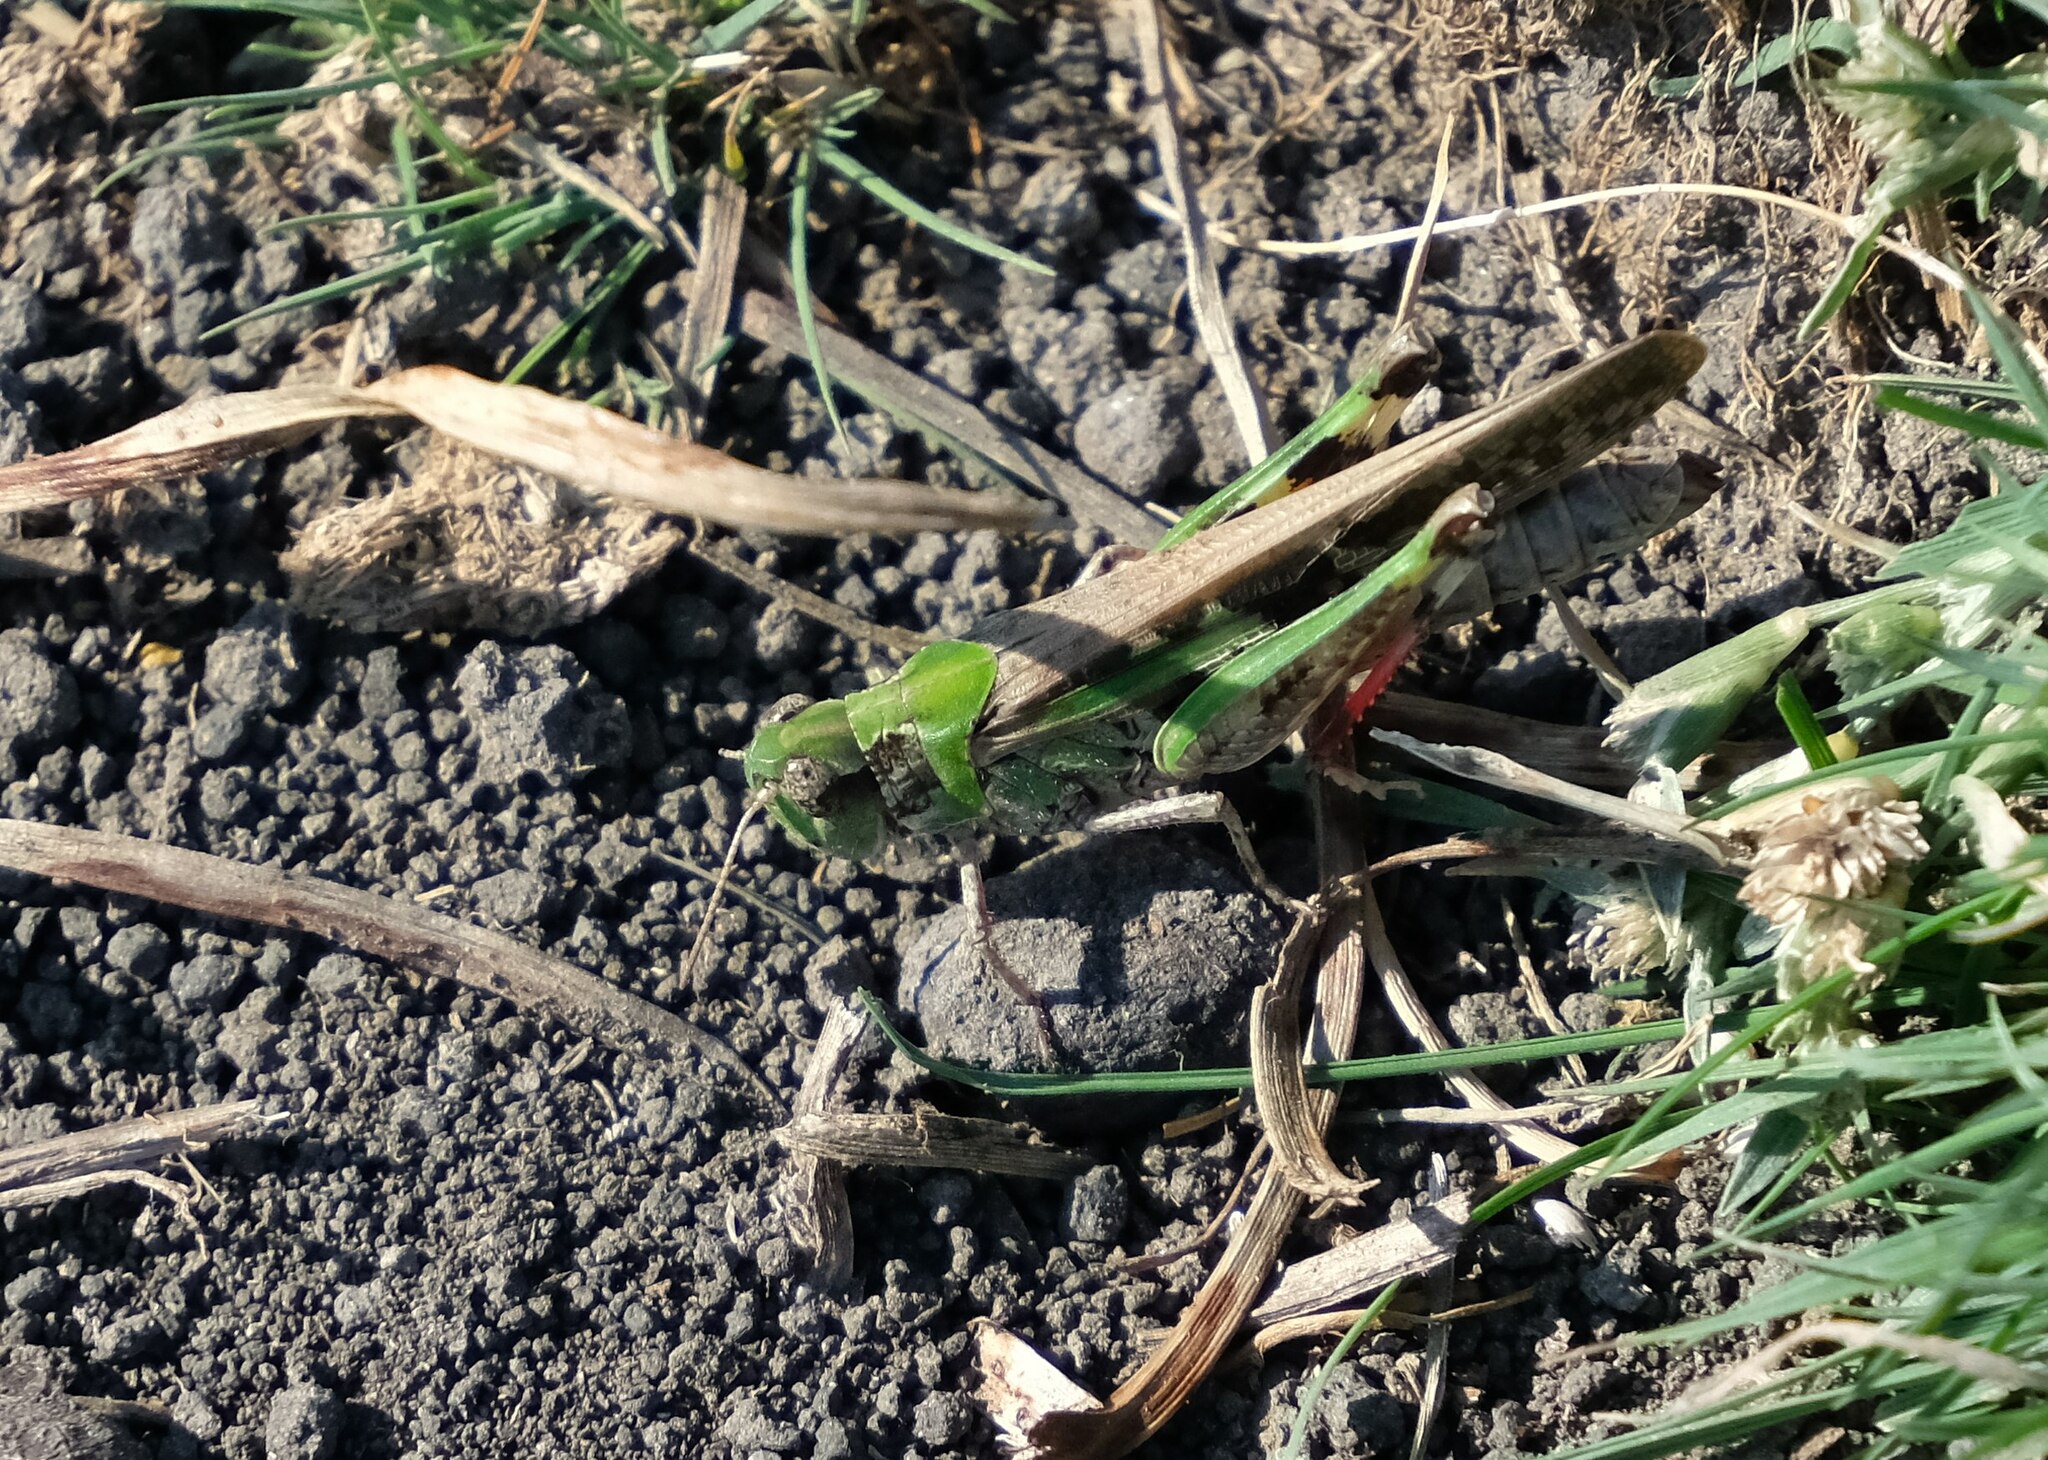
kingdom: Animalia
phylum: Arthropoda
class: Insecta
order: Orthoptera
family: Acrididae
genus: Aiolopus
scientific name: Aiolopus thalassinus
